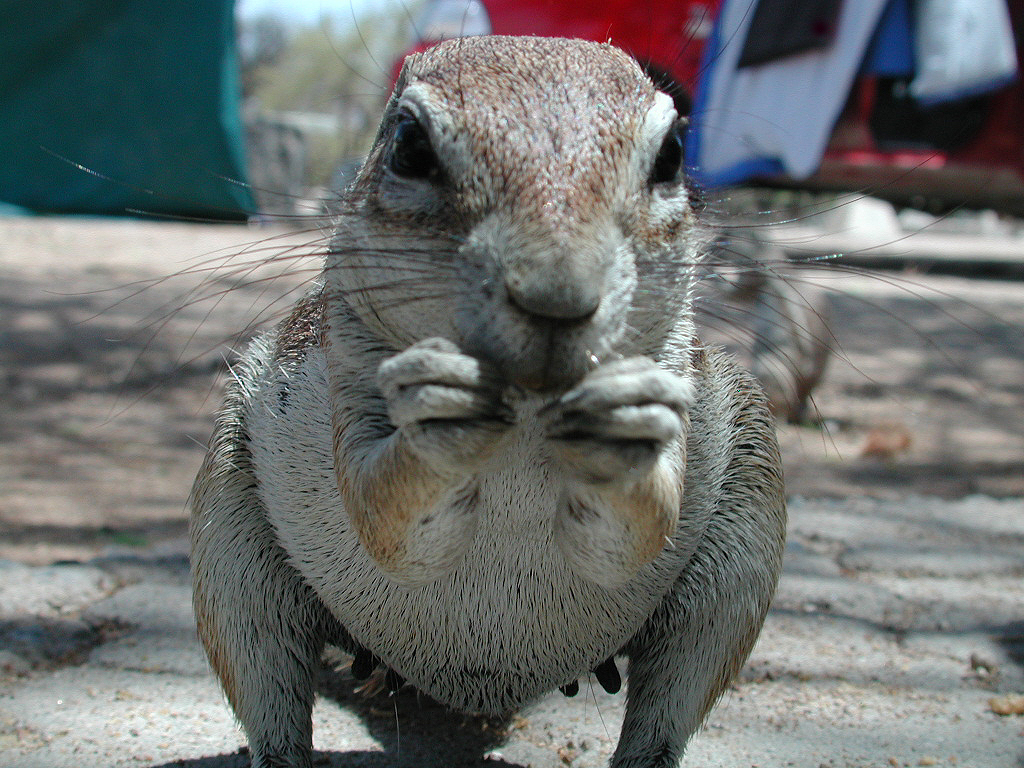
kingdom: Animalia
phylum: Chordata
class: Mammalia
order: Rodentia
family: Sciuridae
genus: Xerus
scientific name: Xerus inauris
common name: South african ground squirrel
